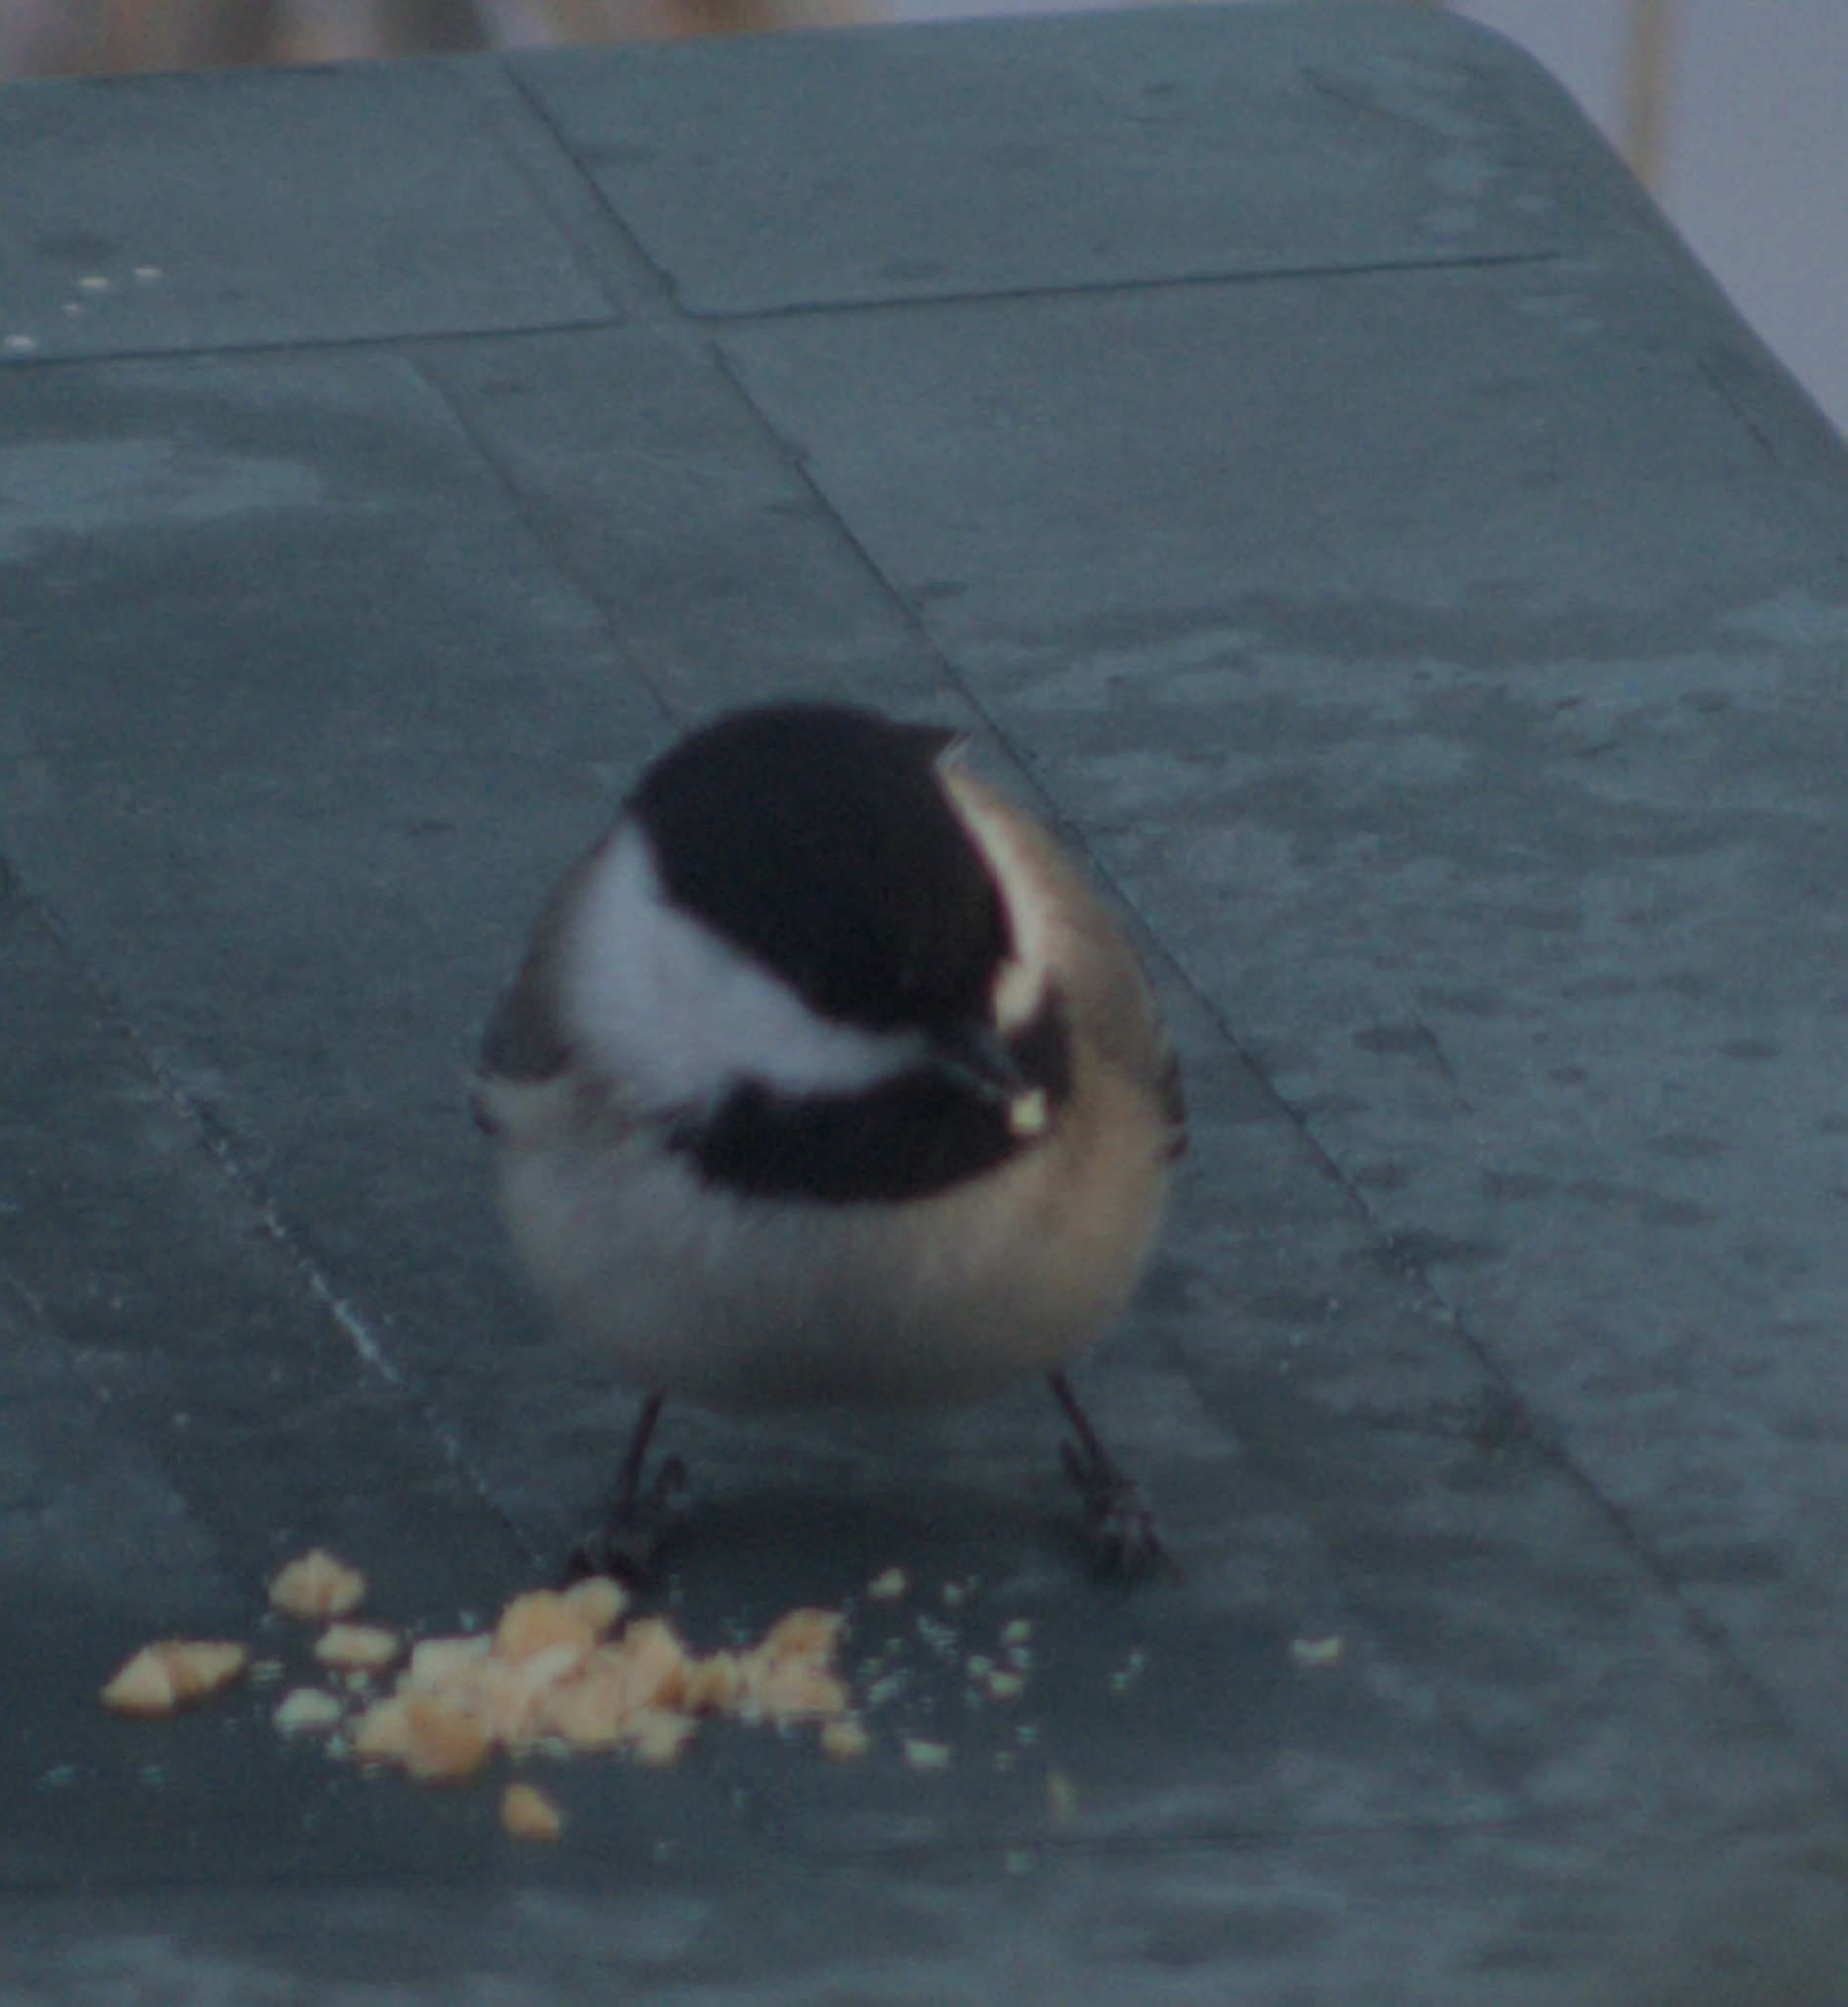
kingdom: Animalia
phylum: Chordata
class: Aves
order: Passeriformes
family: Paridae
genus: Poecile
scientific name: Poecile atricapillus
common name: Black-capped chickadee
